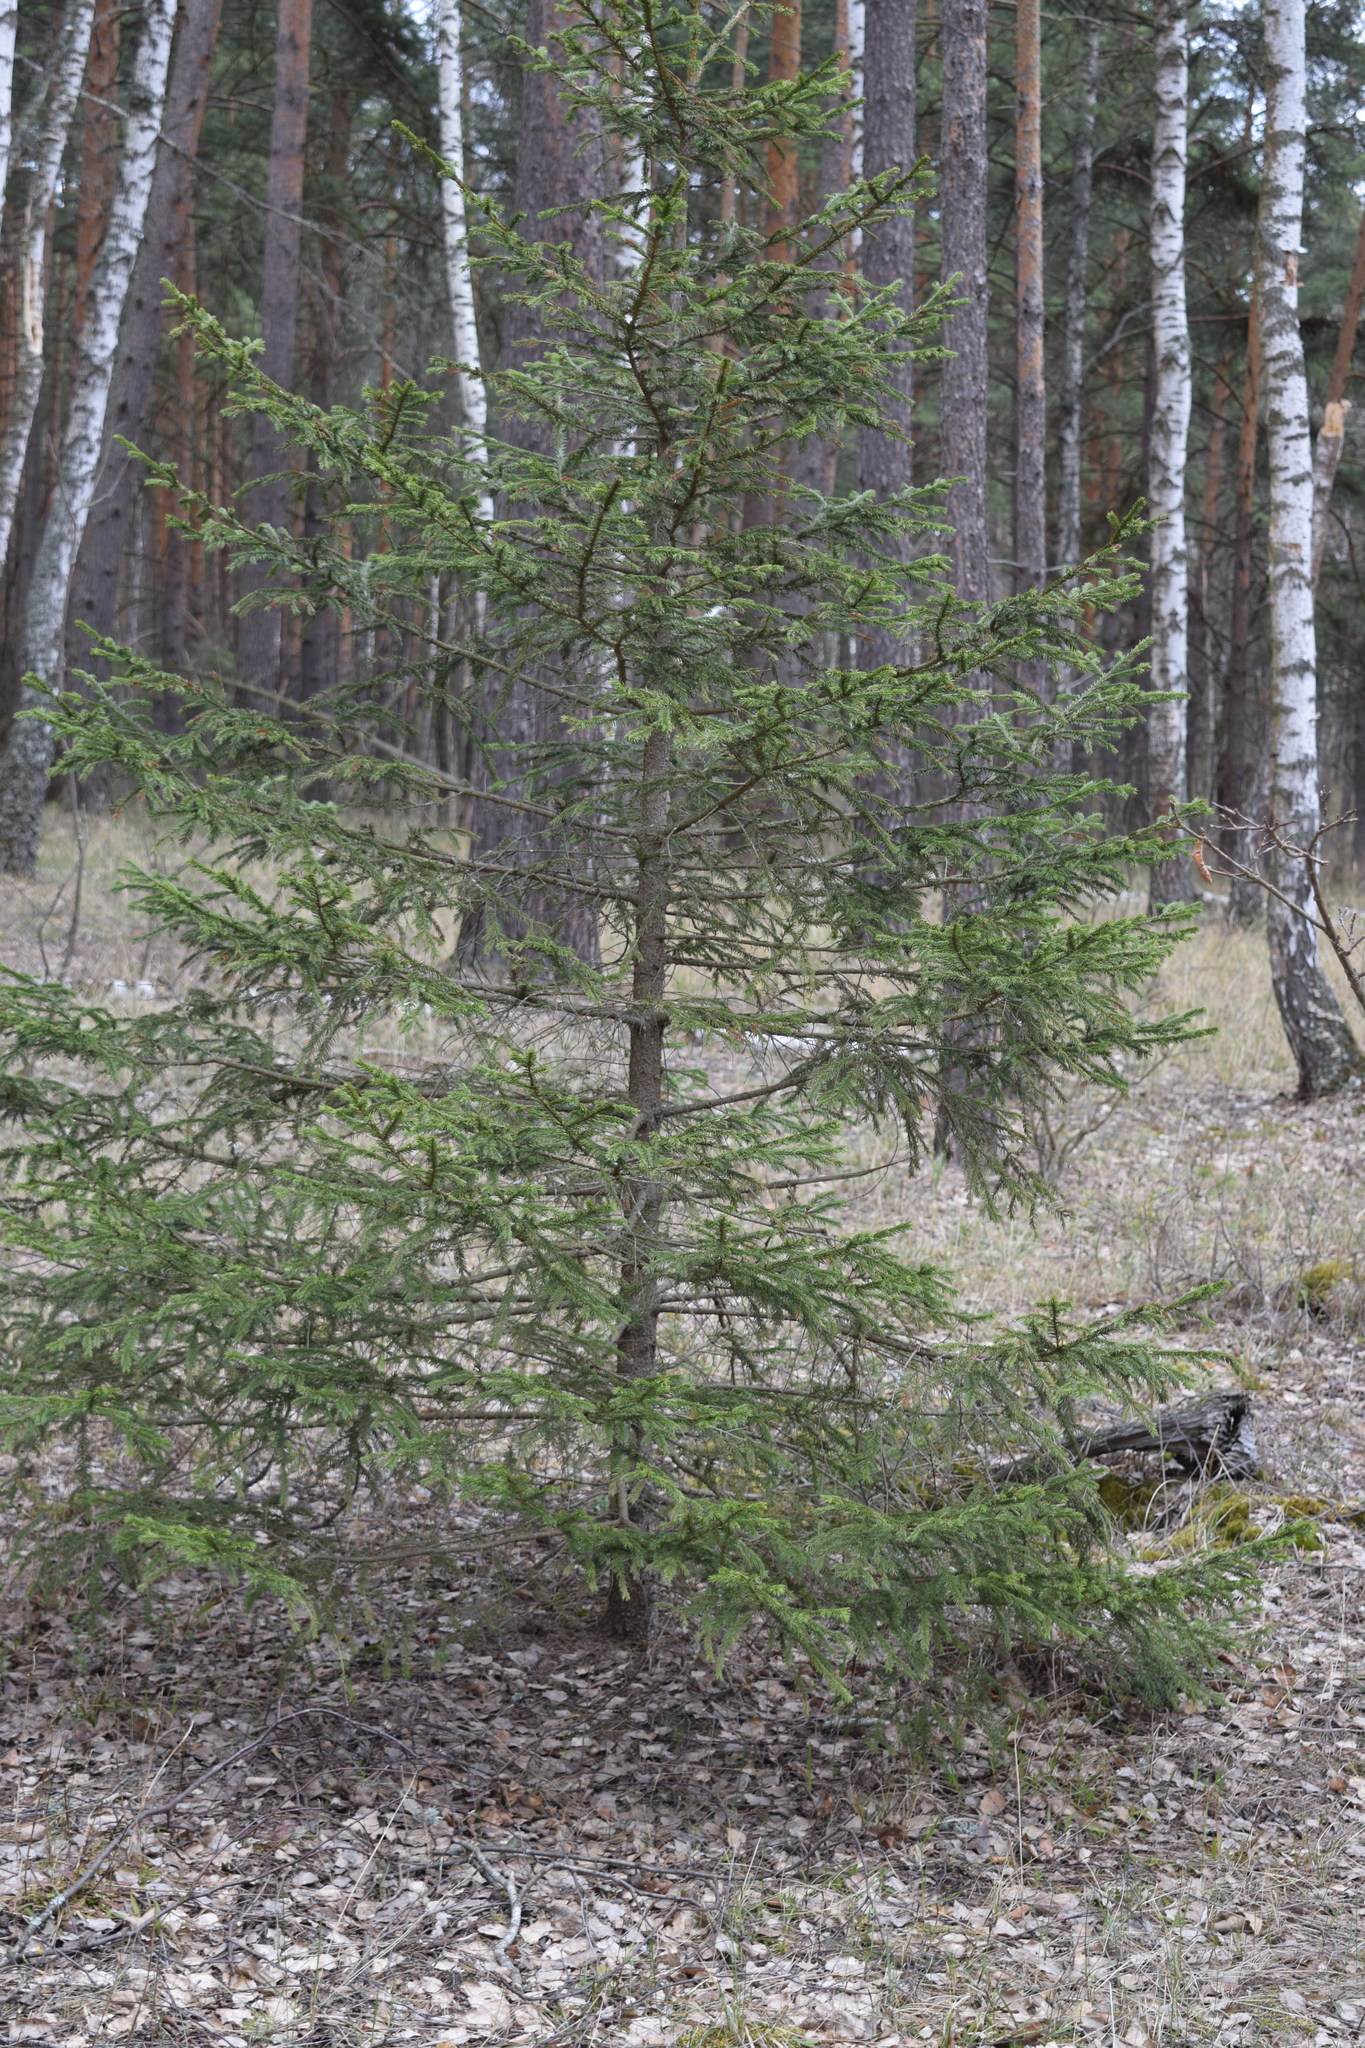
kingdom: Plantae
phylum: Tracheophyta
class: Pinopsida
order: Pinales
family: Pinaceae
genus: Picea
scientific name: Picea abies
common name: Norway spruce
